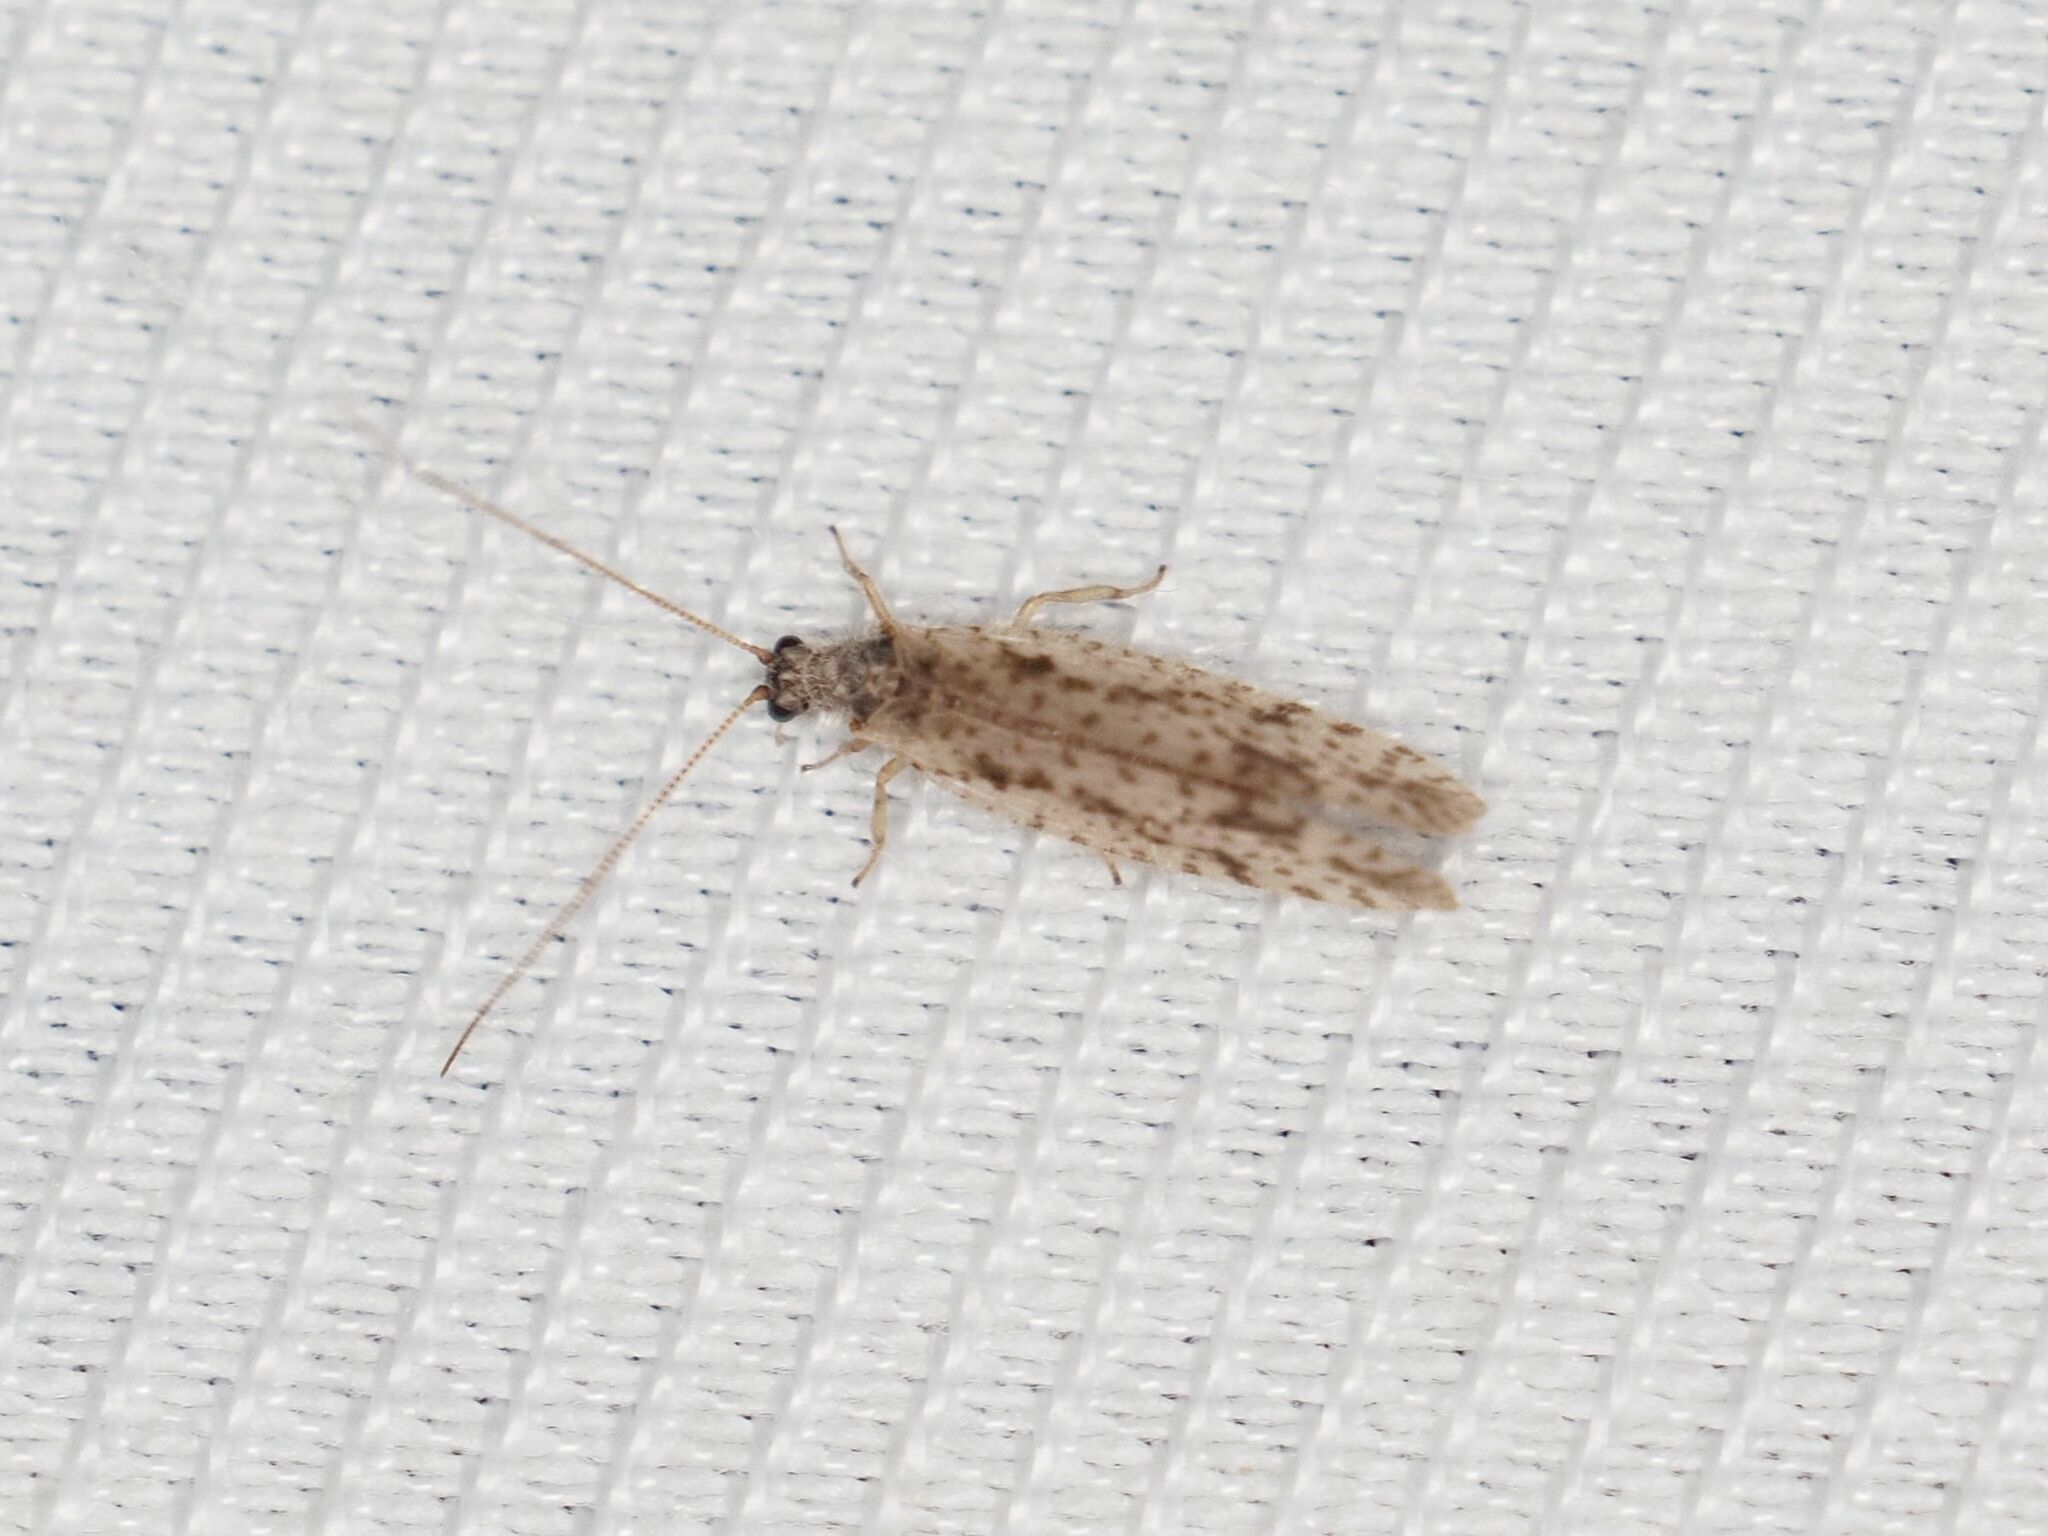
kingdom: Animalia
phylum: Arthropoda
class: Insecta
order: Neuroptera
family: Hemerobiidae
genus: Micromus
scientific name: Micromus variegatus
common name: Brown lacewing
